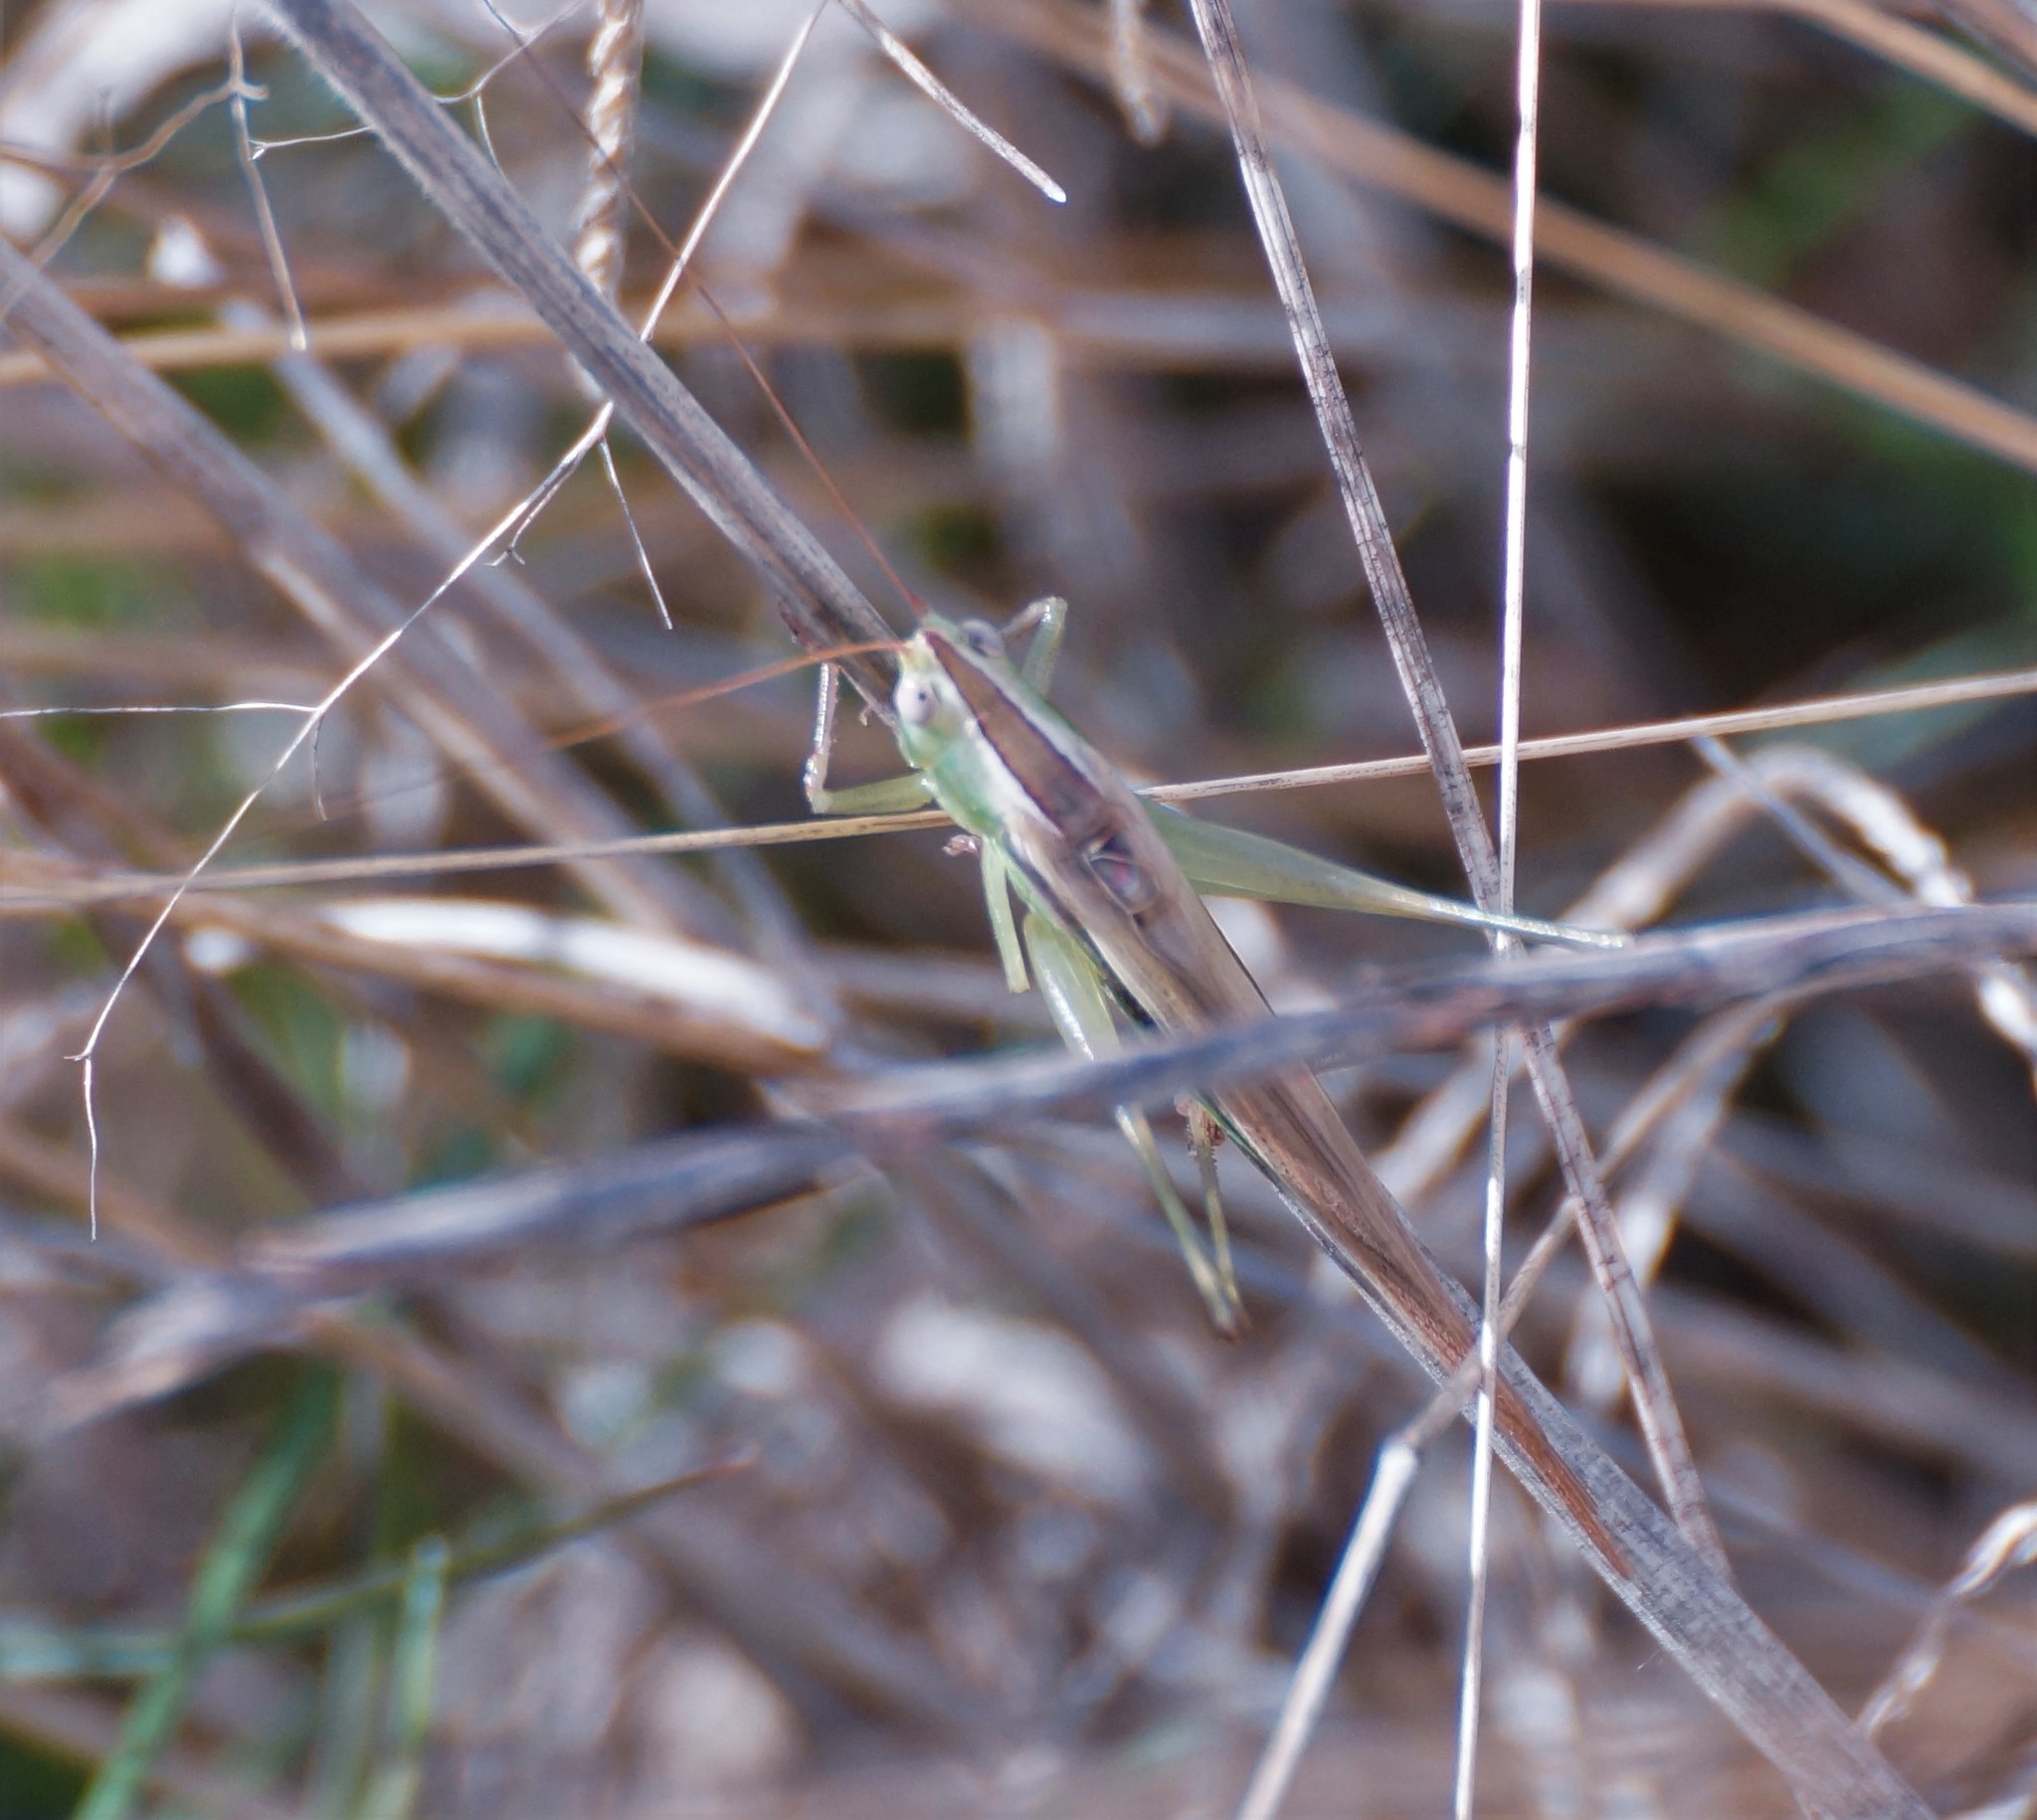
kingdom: Animalia
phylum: Arthropoda
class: Insecta
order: Orthoptera
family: Tettigoniidae
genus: Conocephalus
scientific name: Conocephalus upoluensis
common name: Upolu meadow katydid
